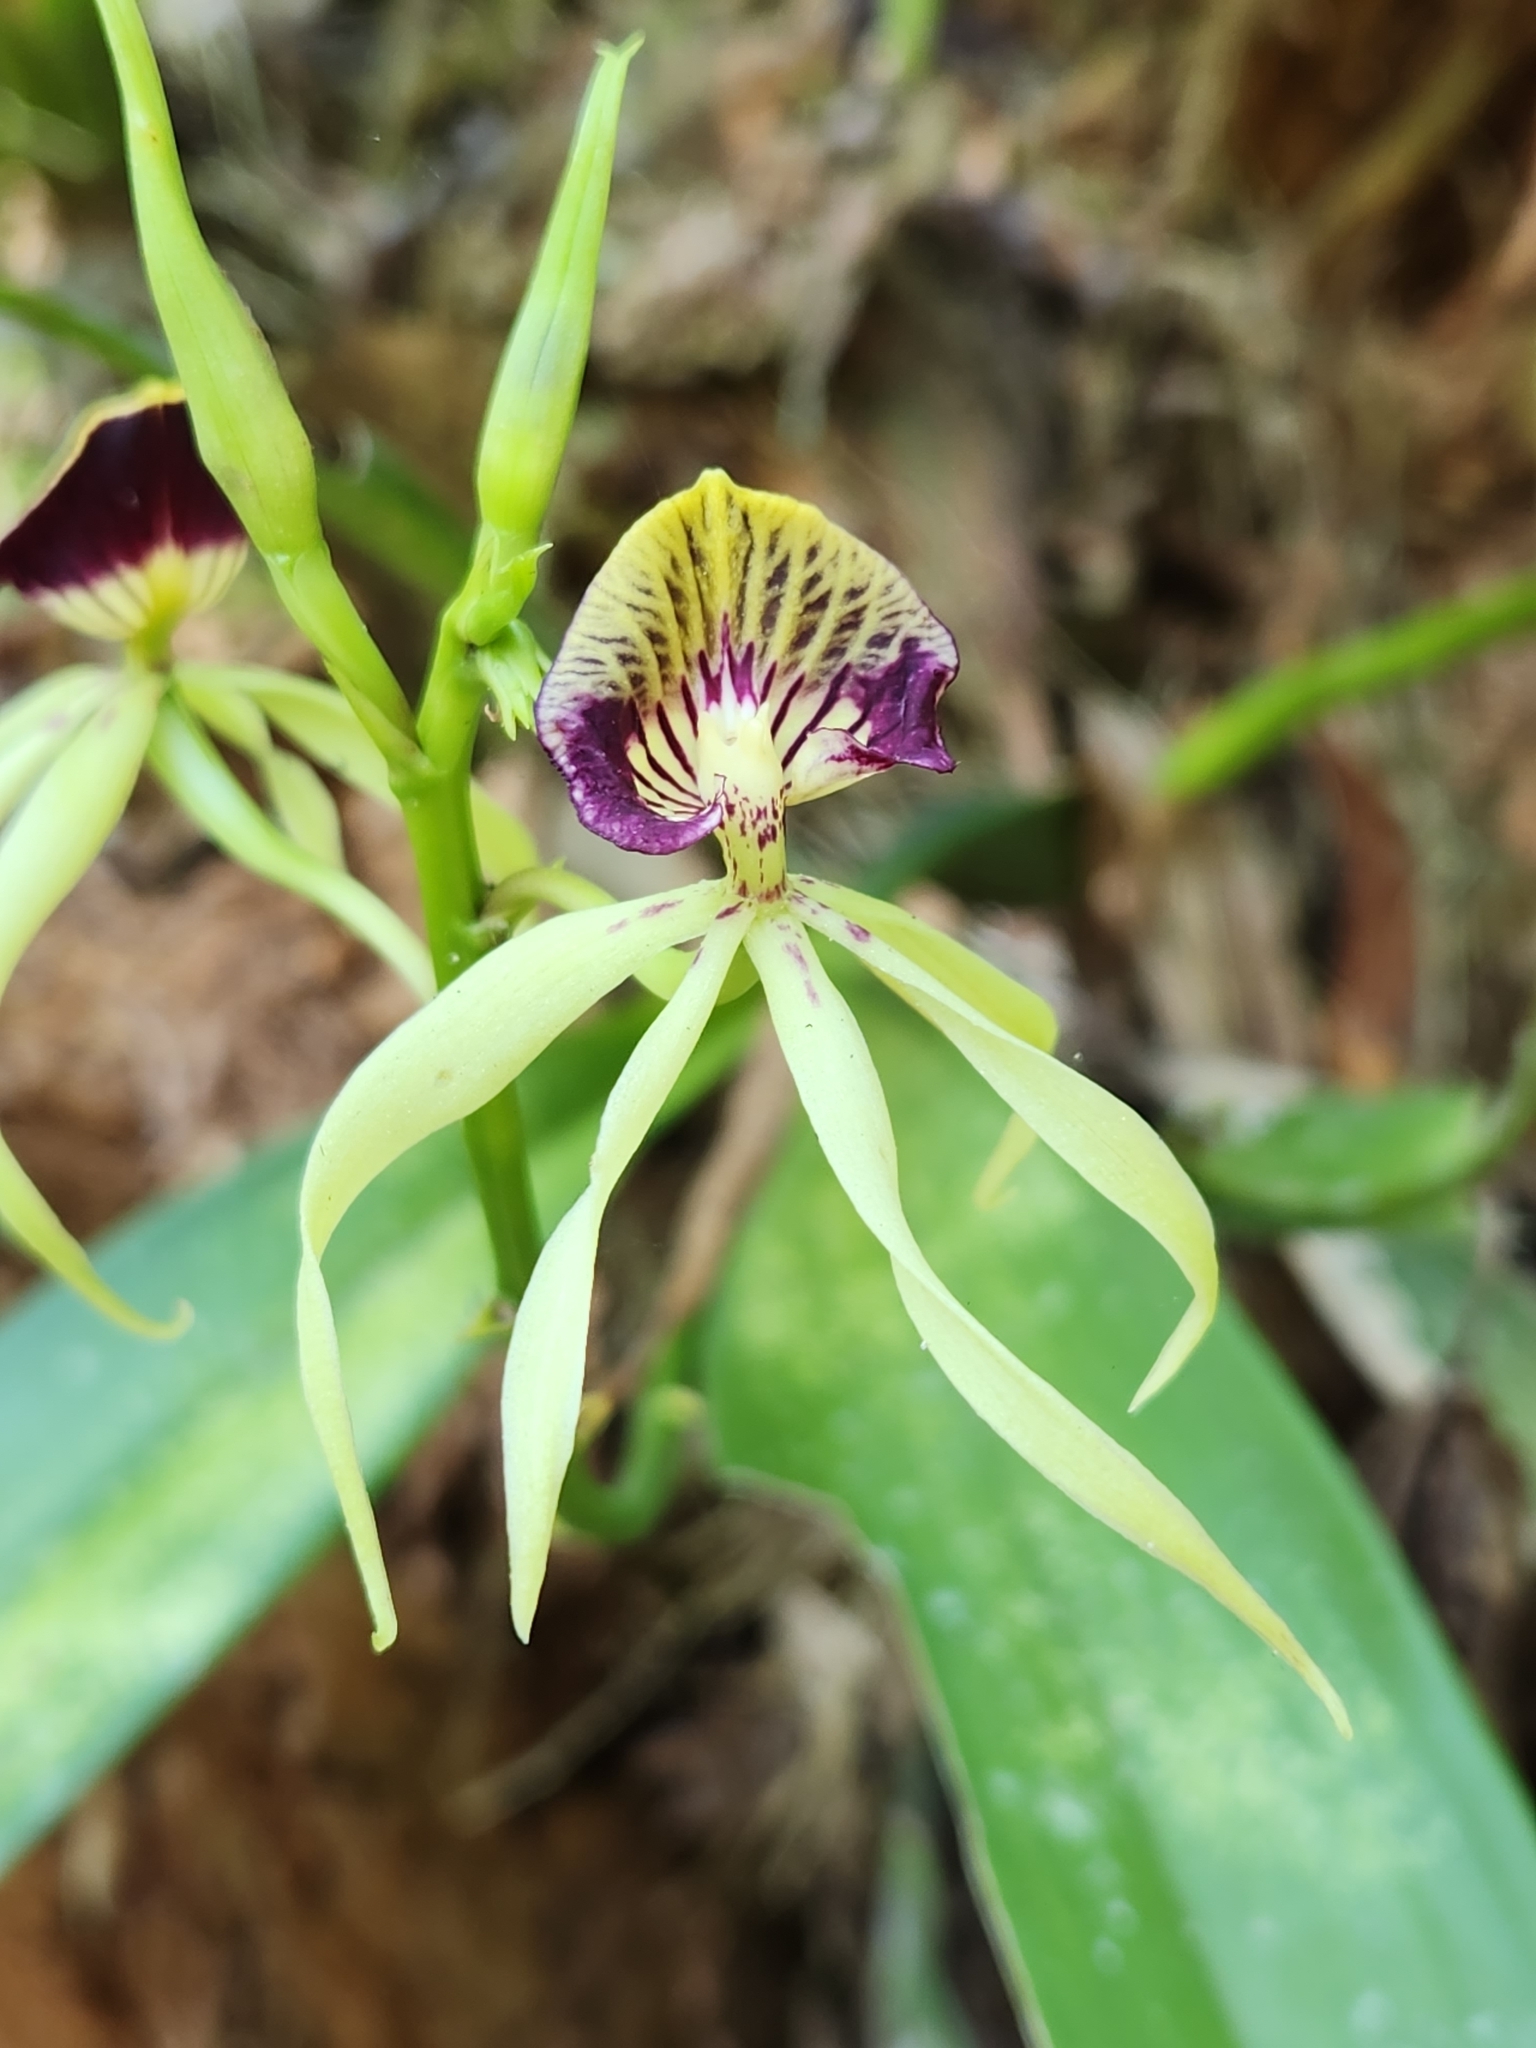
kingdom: Plantae
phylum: Tracheophyta
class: Liliopsida
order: Asparagales
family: Orchidaceae
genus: Prosthechea
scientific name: Prosthechea cochleata
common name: Clamshell orchid
